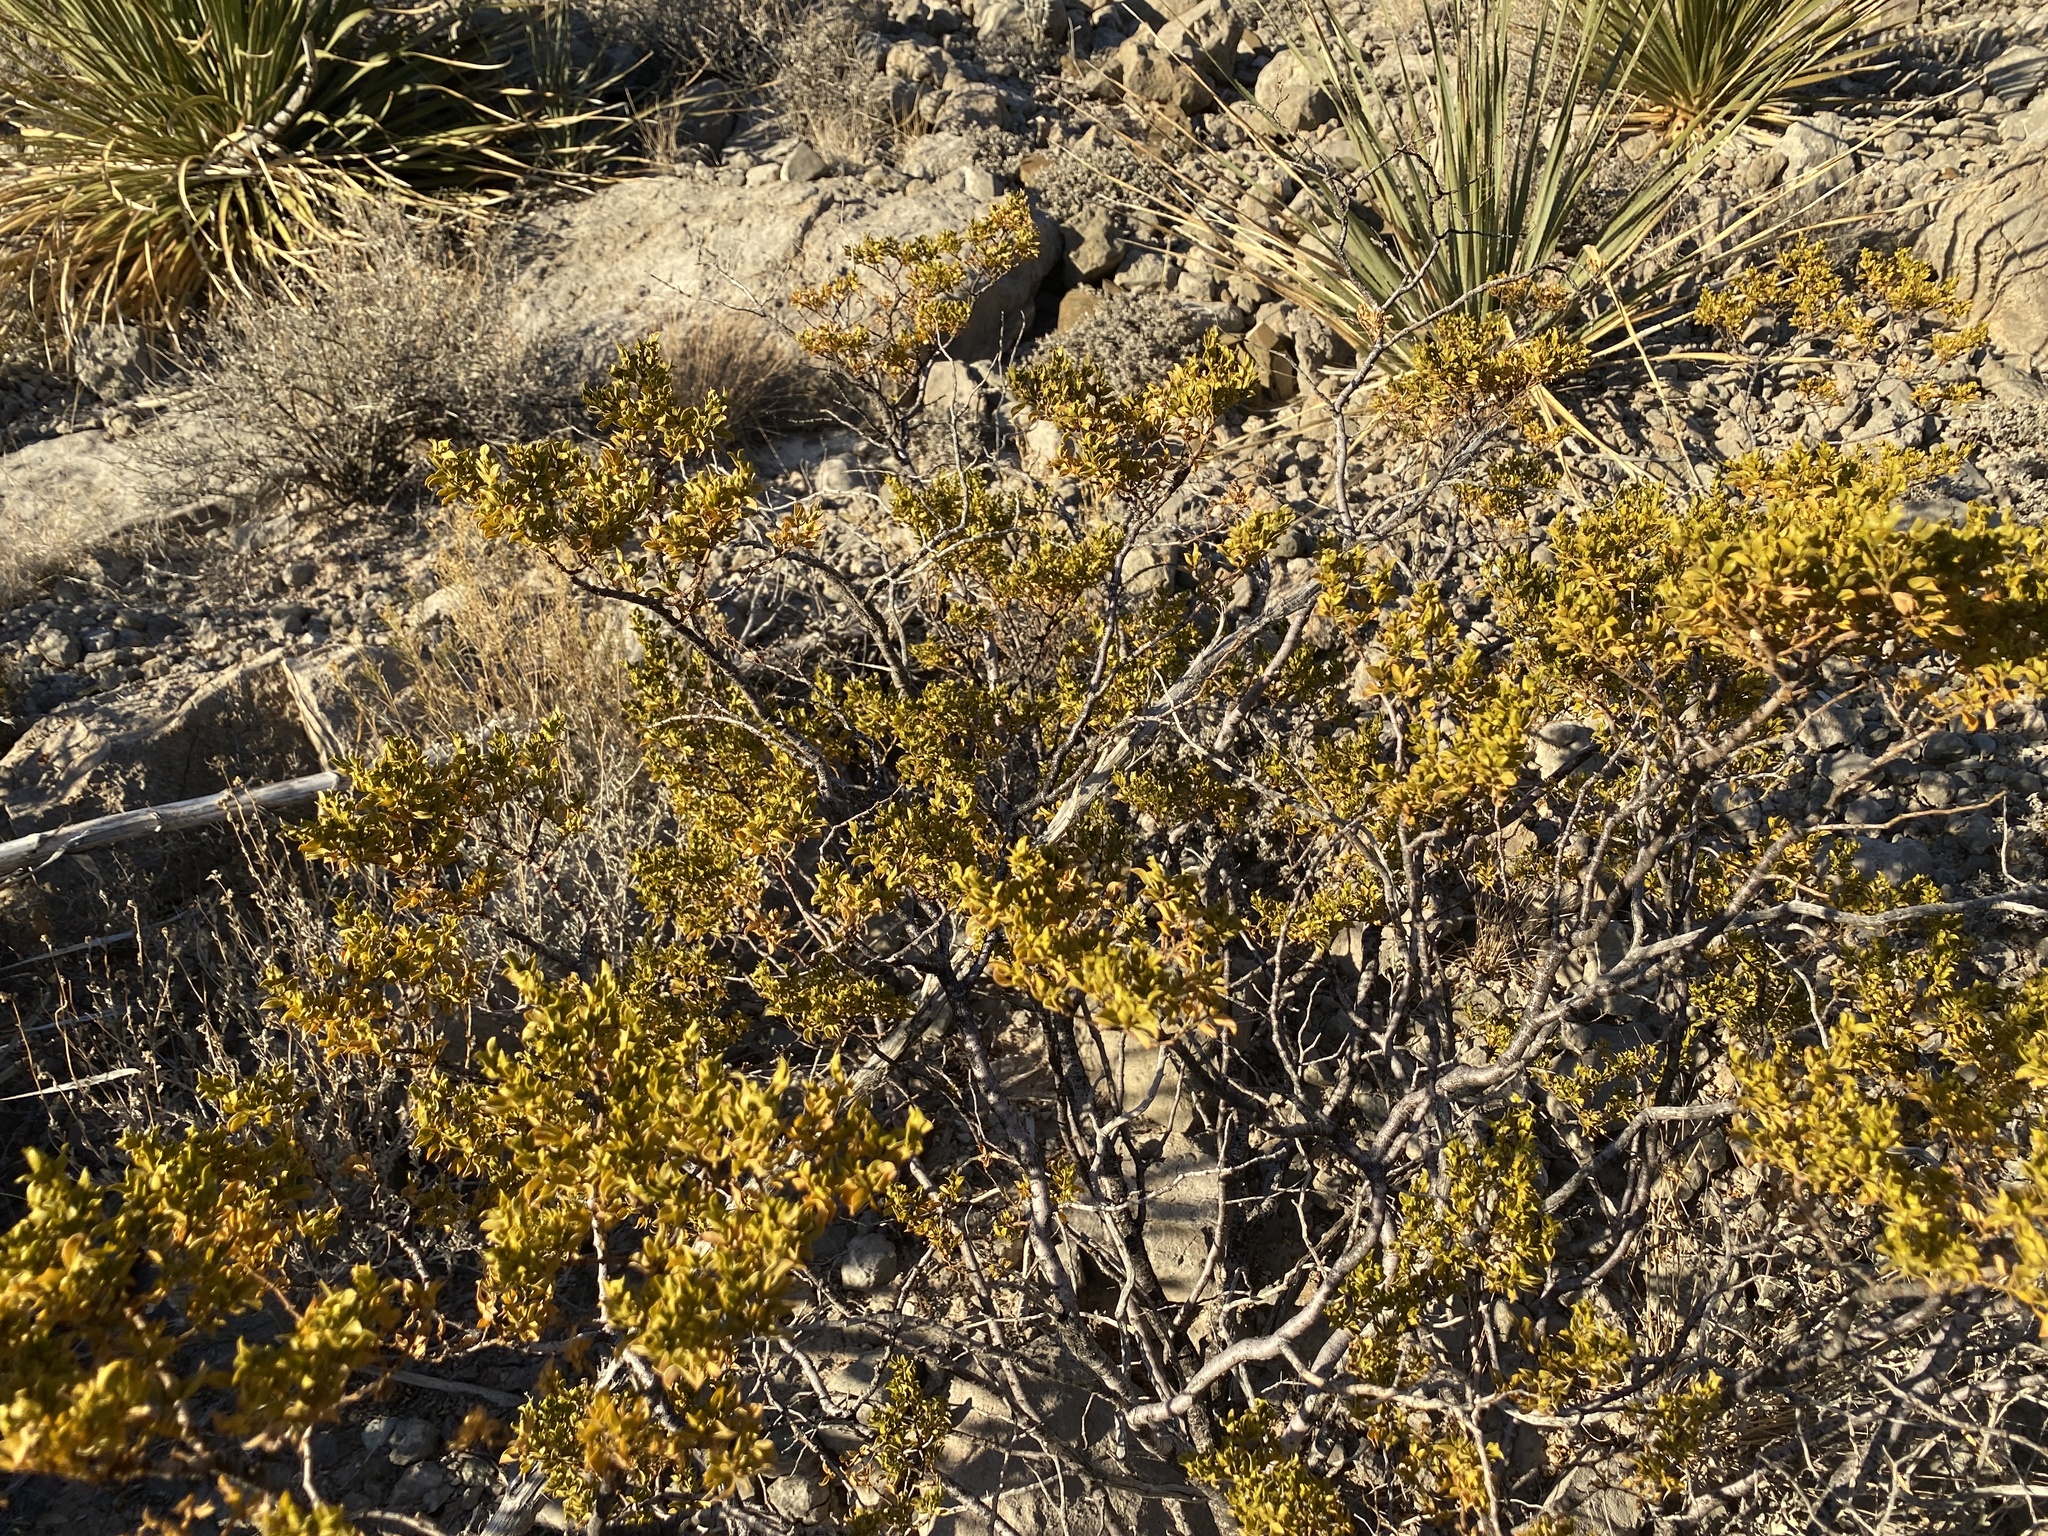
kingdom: Plantae
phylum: Tracheophyta
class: Magnoliopsida
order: Zygophyllales
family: Zygophyllaceae
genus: Larrea
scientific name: Larrea tridentata
